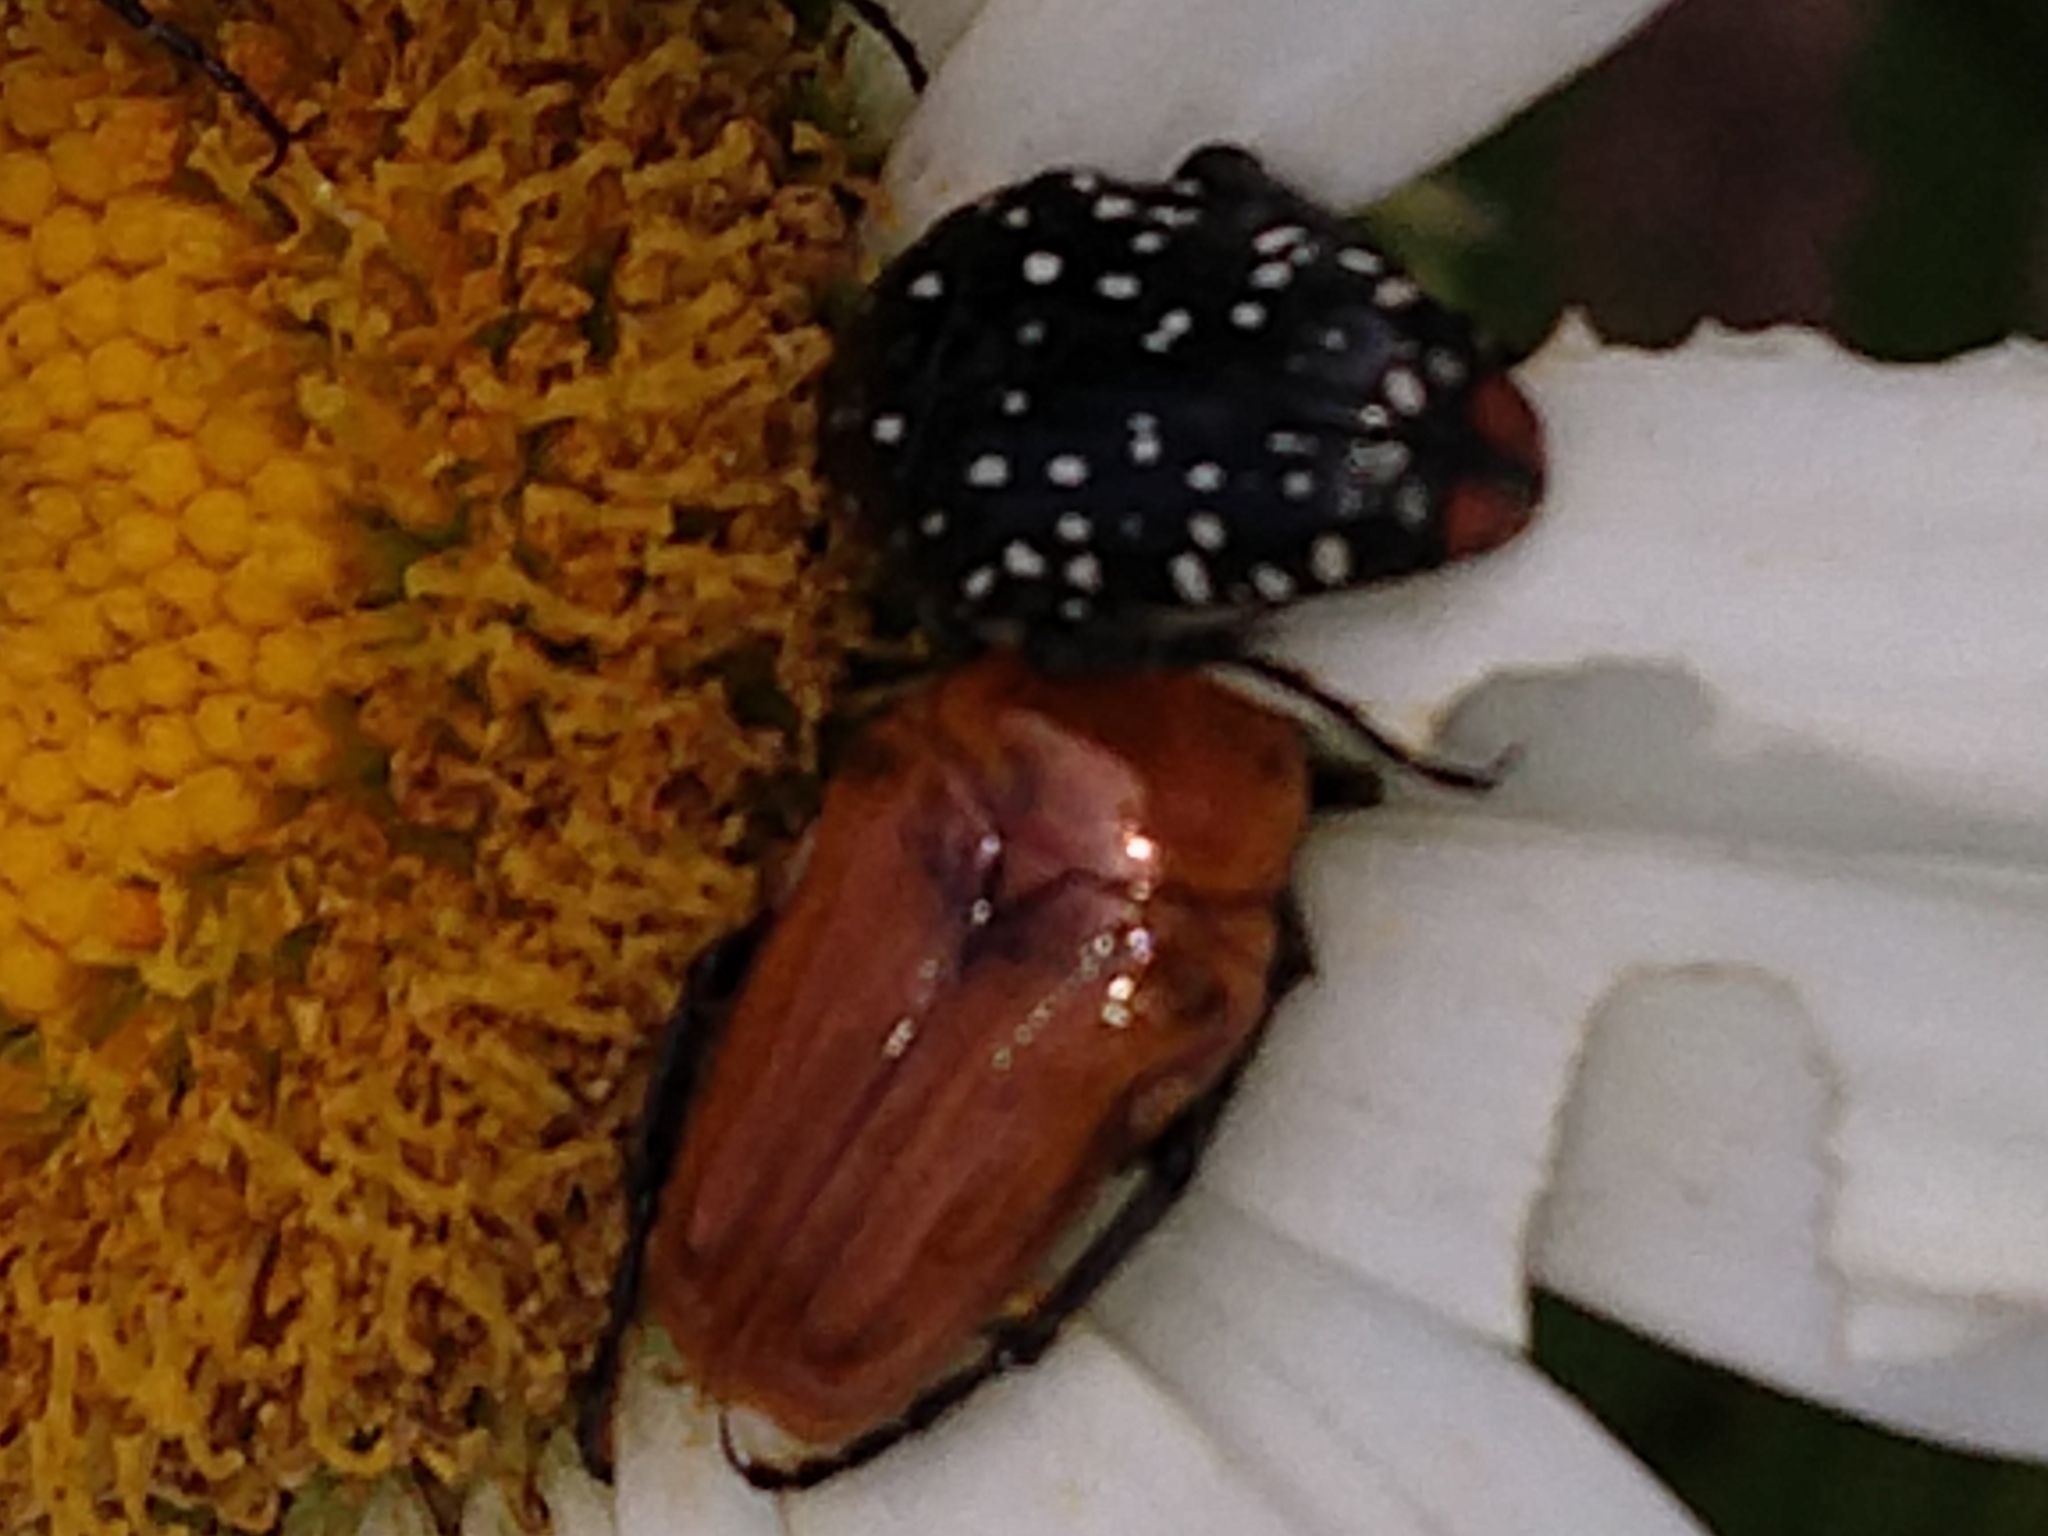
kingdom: Animalia
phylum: Arthropoda
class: Insecta
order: Coleoptera
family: Scarabaeidae
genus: Leucocelis
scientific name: Leucocelis rubra
